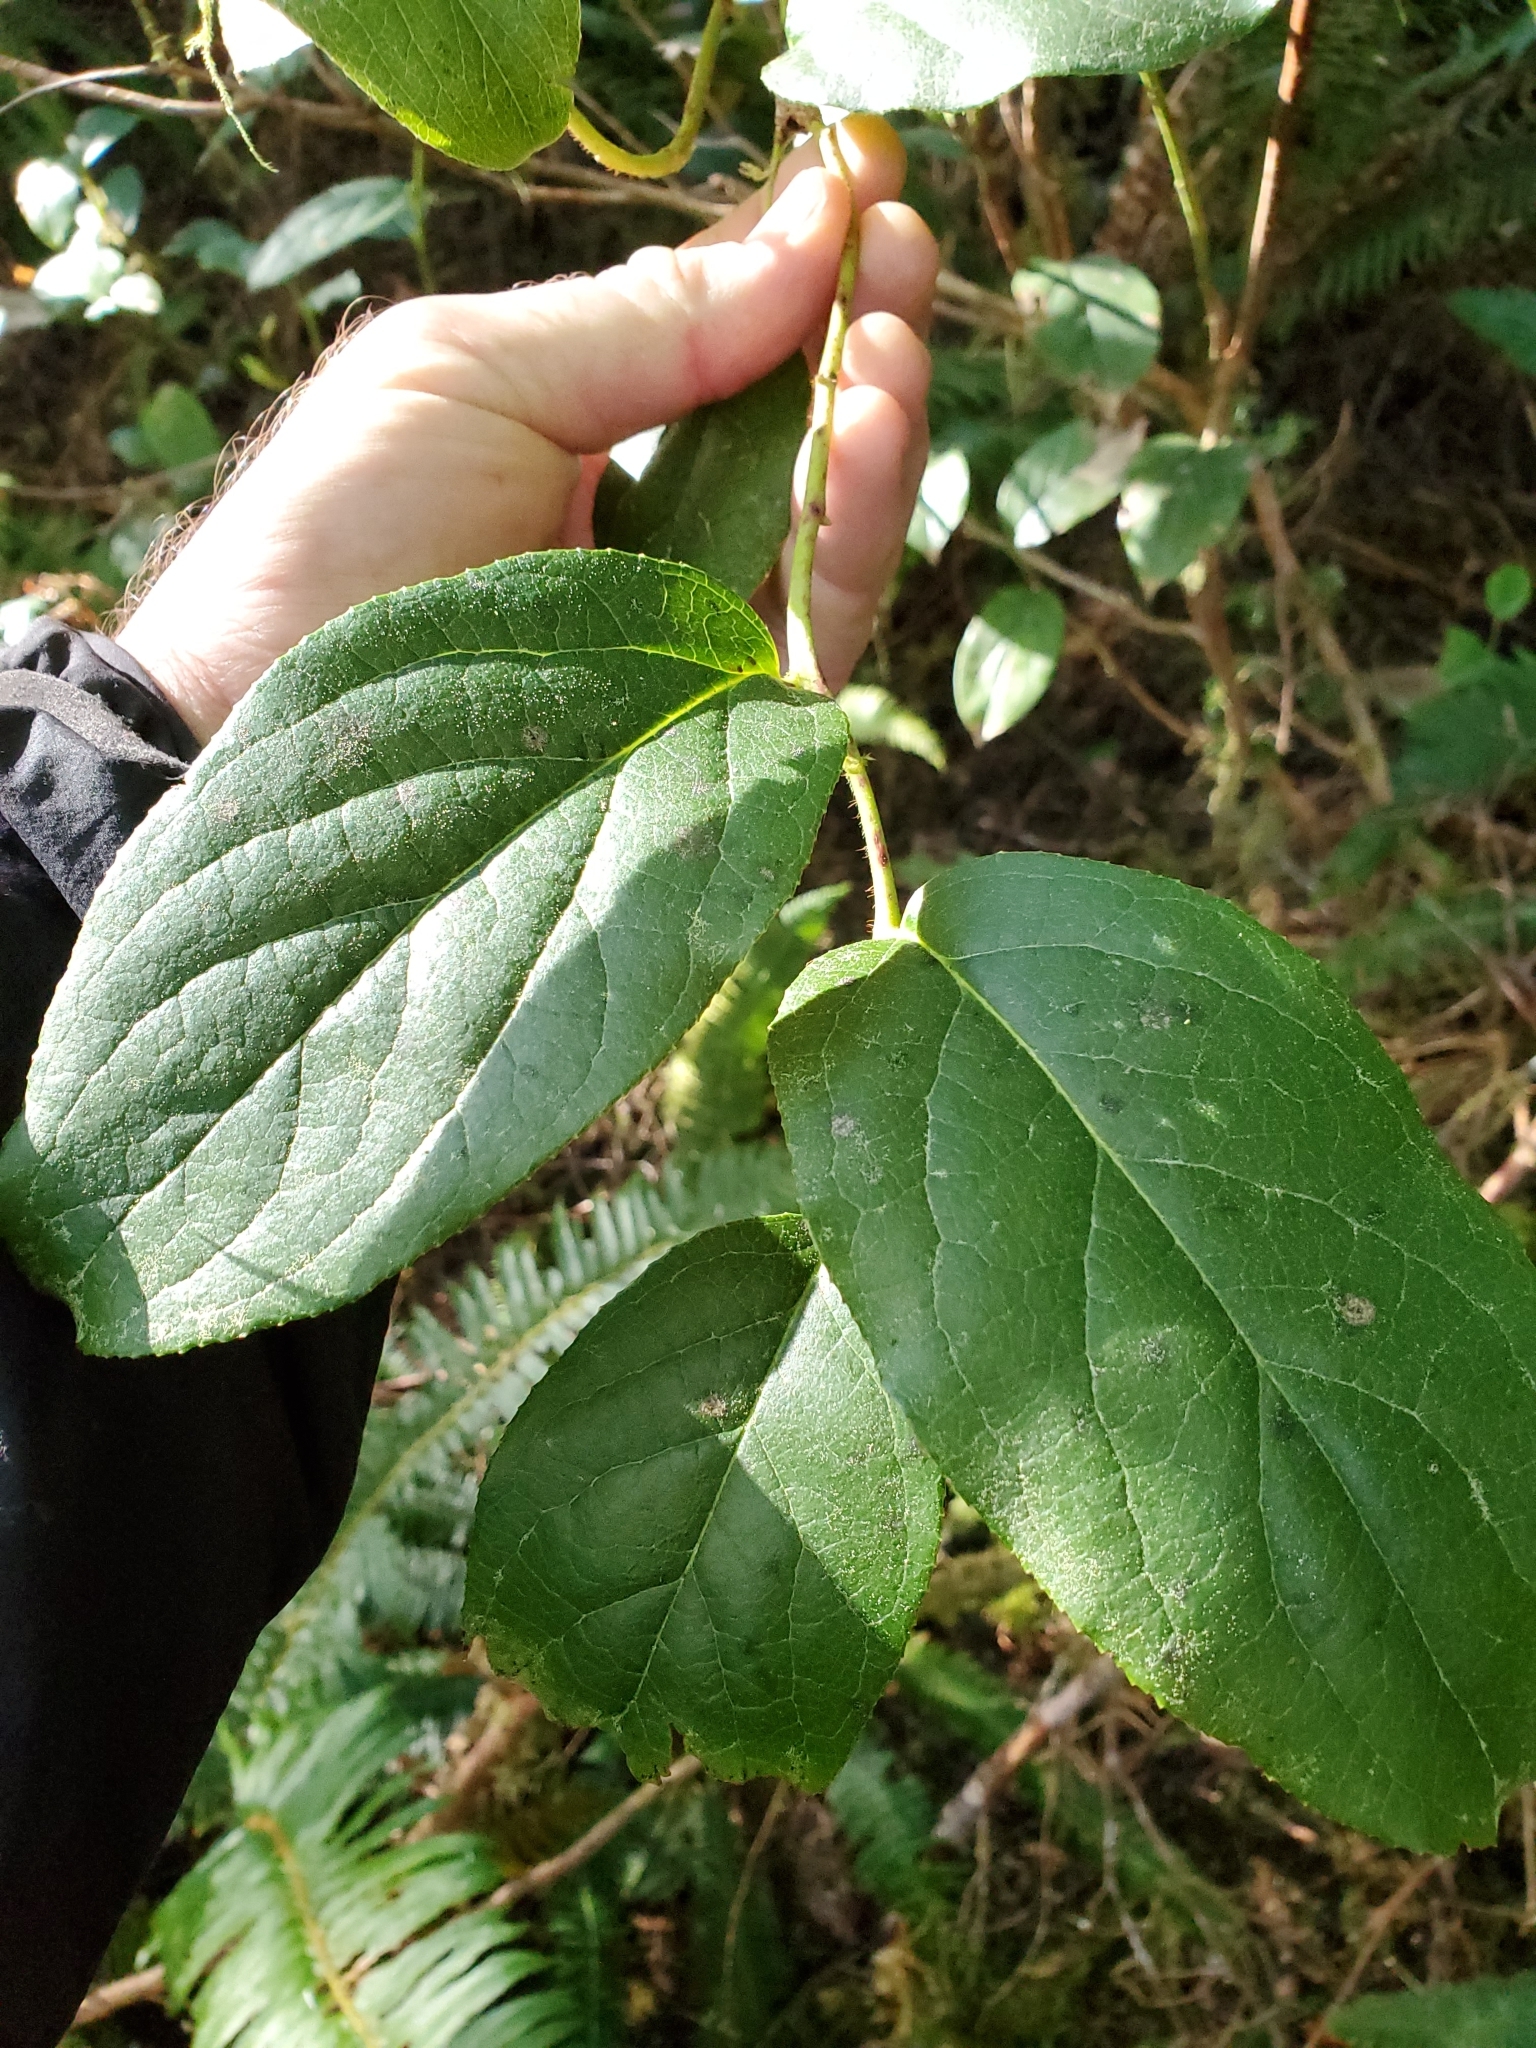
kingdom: Plantae
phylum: Tracheophyta
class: Magnoliopsida
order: Ericales
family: Ericaceae
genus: Gaultheria
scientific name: Gaultheria shallon
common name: Shallon
